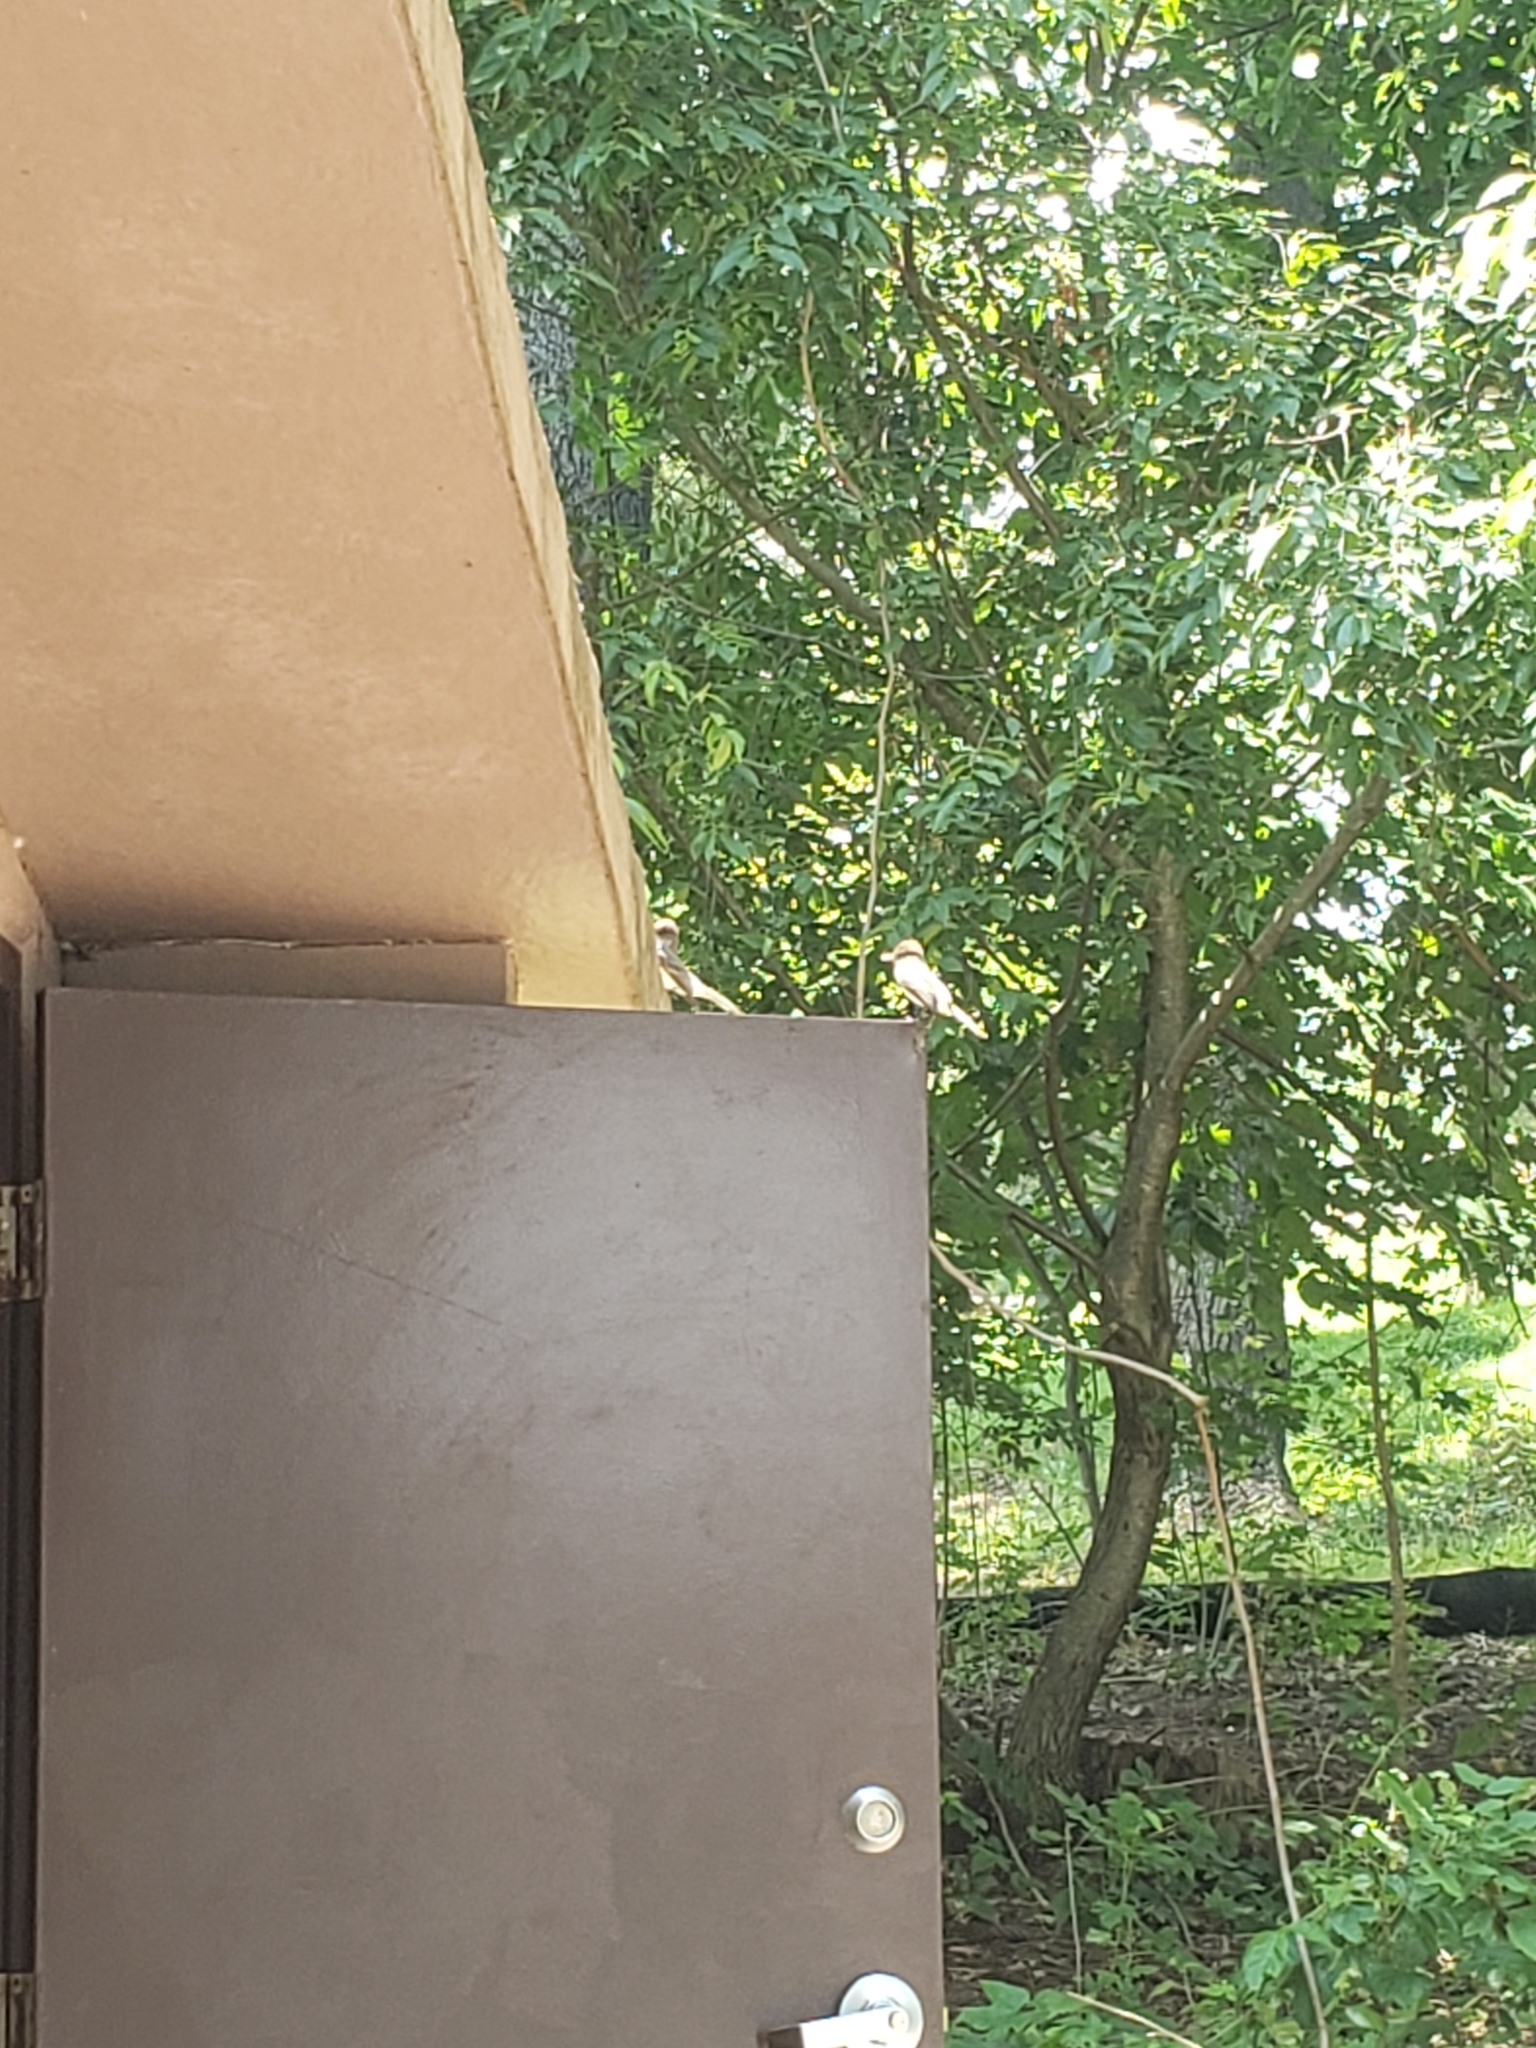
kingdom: Animalia
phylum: Chordata
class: Aves
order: Passeriformes
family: Tyrannidae
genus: Sayornis
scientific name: Sayornis phoebe
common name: Eastern phoebe
